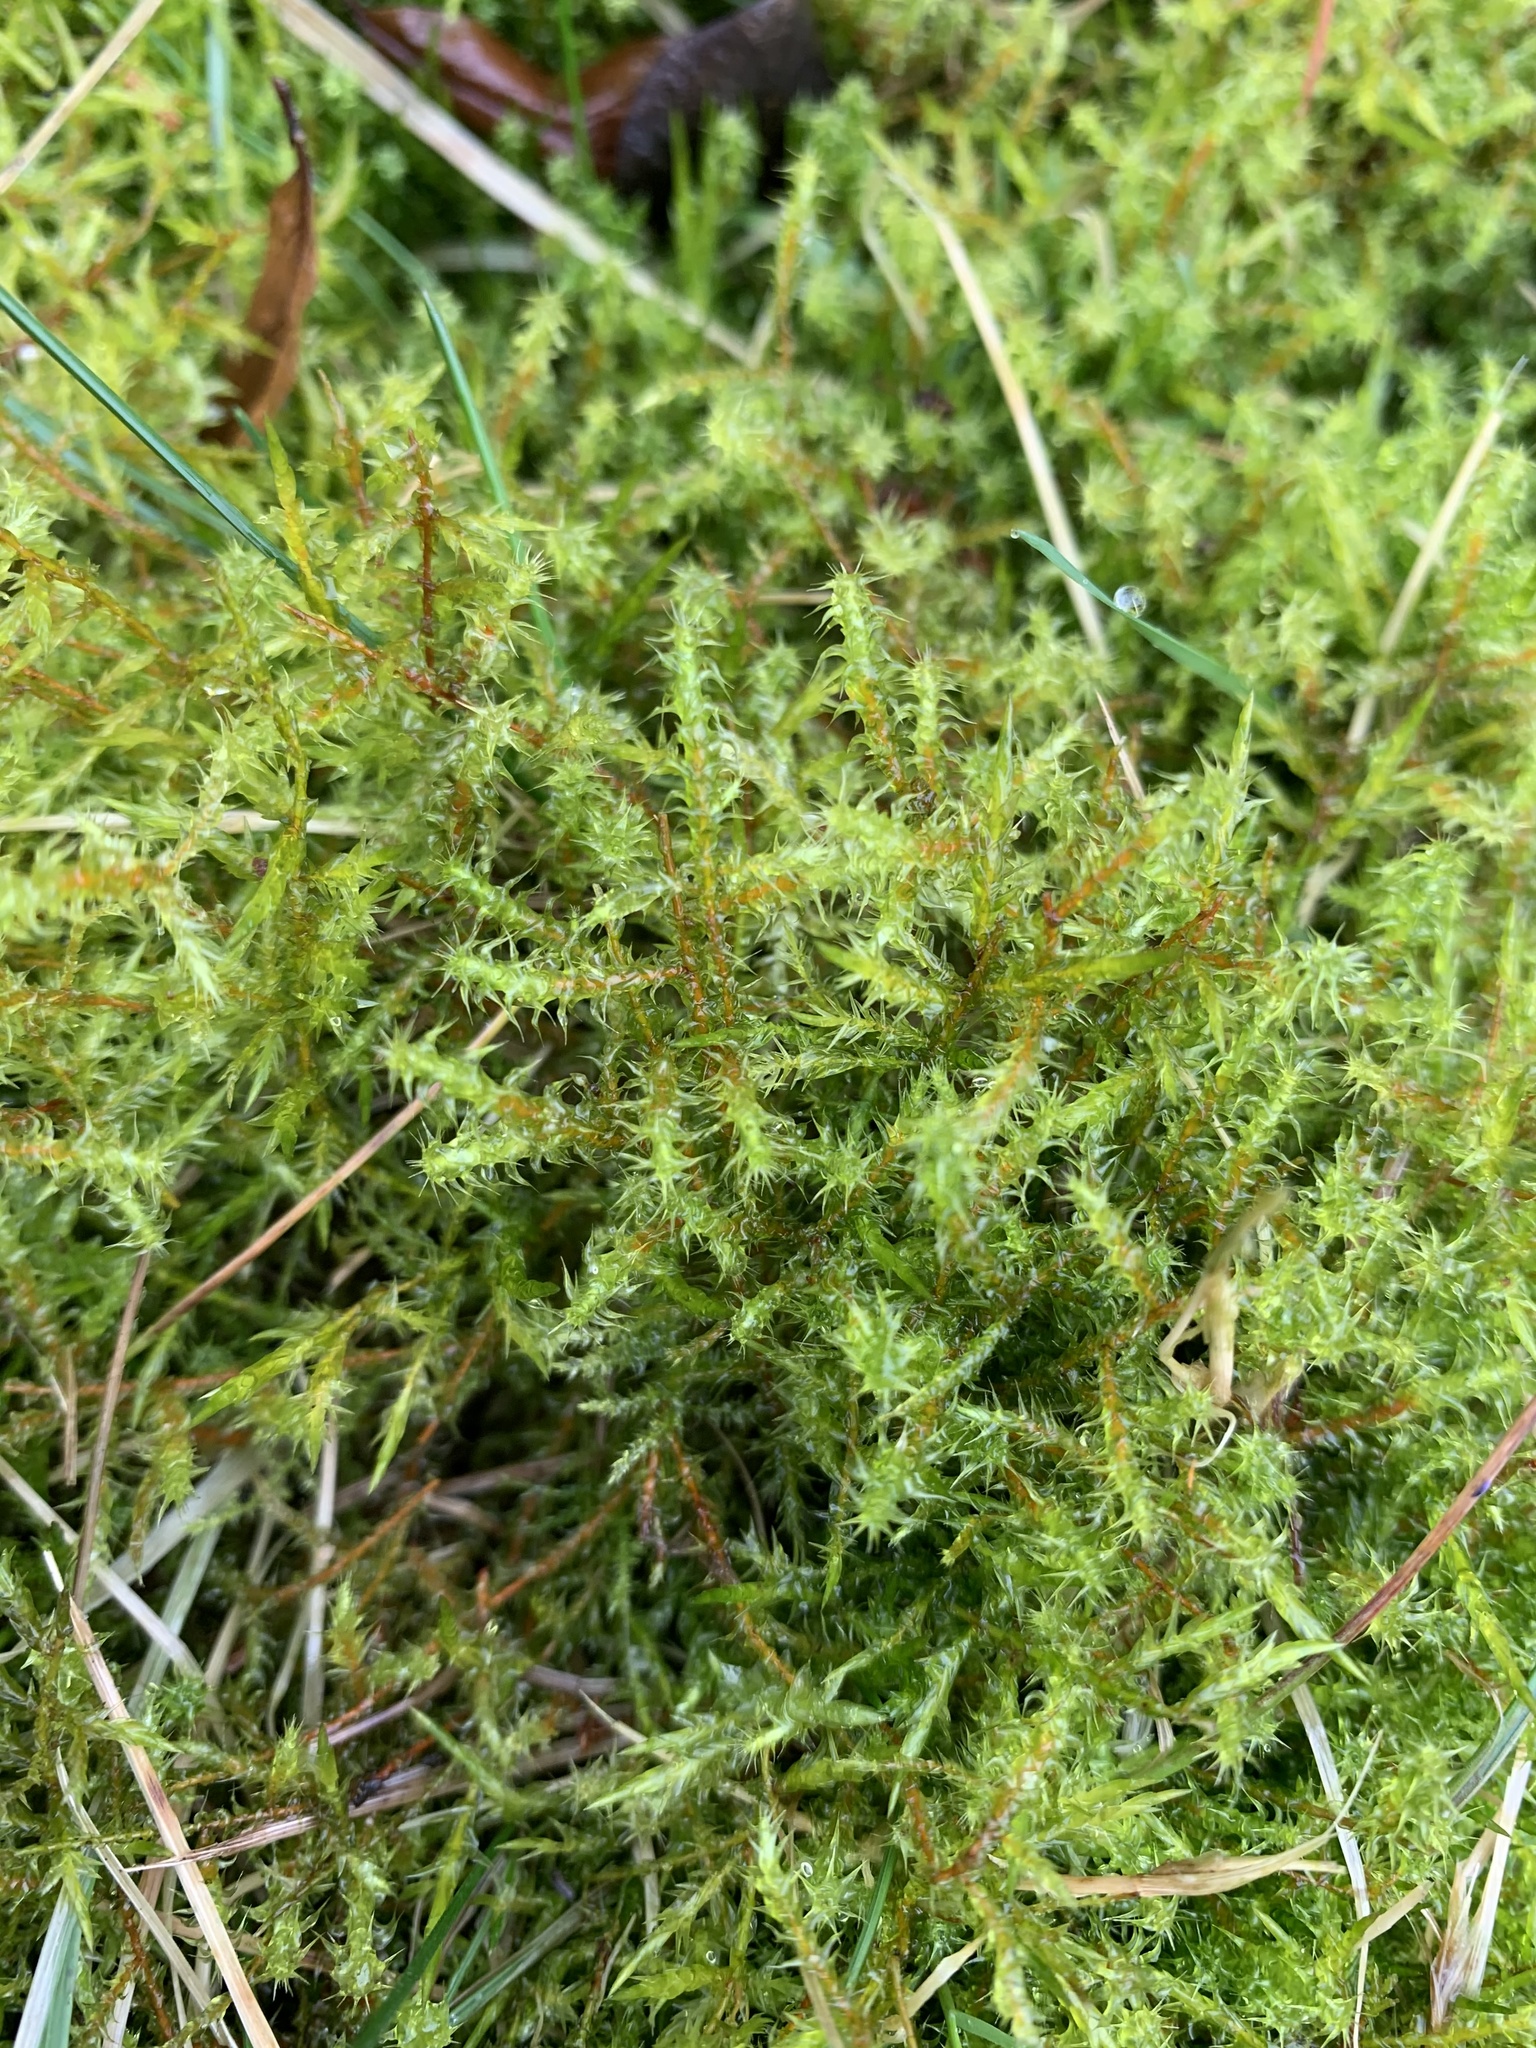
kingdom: Plantae
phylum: Bryophyta
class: Bryopsida
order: Hypnales
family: Hylocomiaceae
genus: Rhytidiadelphus
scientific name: Rhytidiadelphus squarrosus
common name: Springy turf-moss
